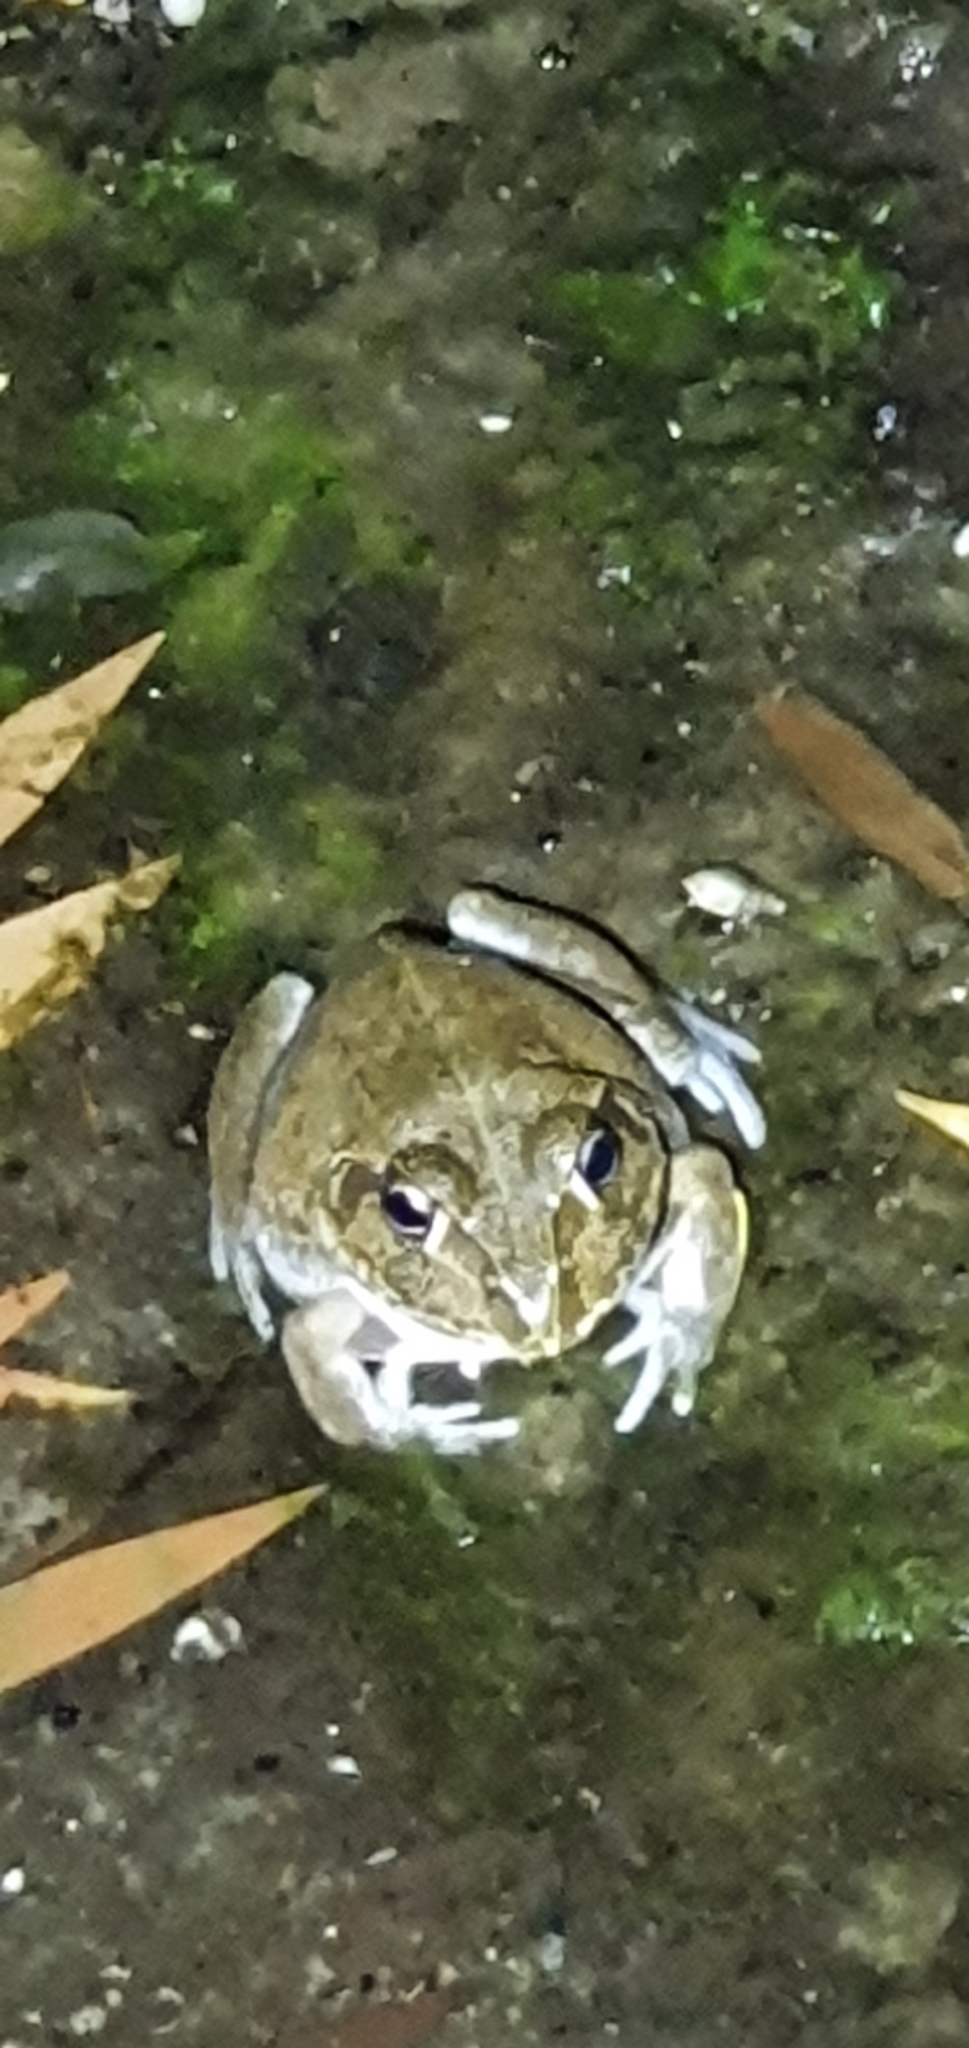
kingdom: Animalia
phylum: Chordata
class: Amphibia
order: Anura
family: Pelodryadidae
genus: Ranoidea
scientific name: Ranoidea novaehollandiae
